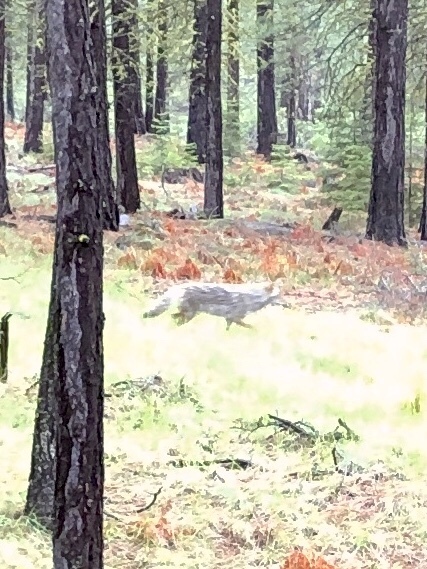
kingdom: Animalia
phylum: Chordata
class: Mammalia
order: Carnivora
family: Canidae
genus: Canis
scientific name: Canis latrans
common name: Coyote
